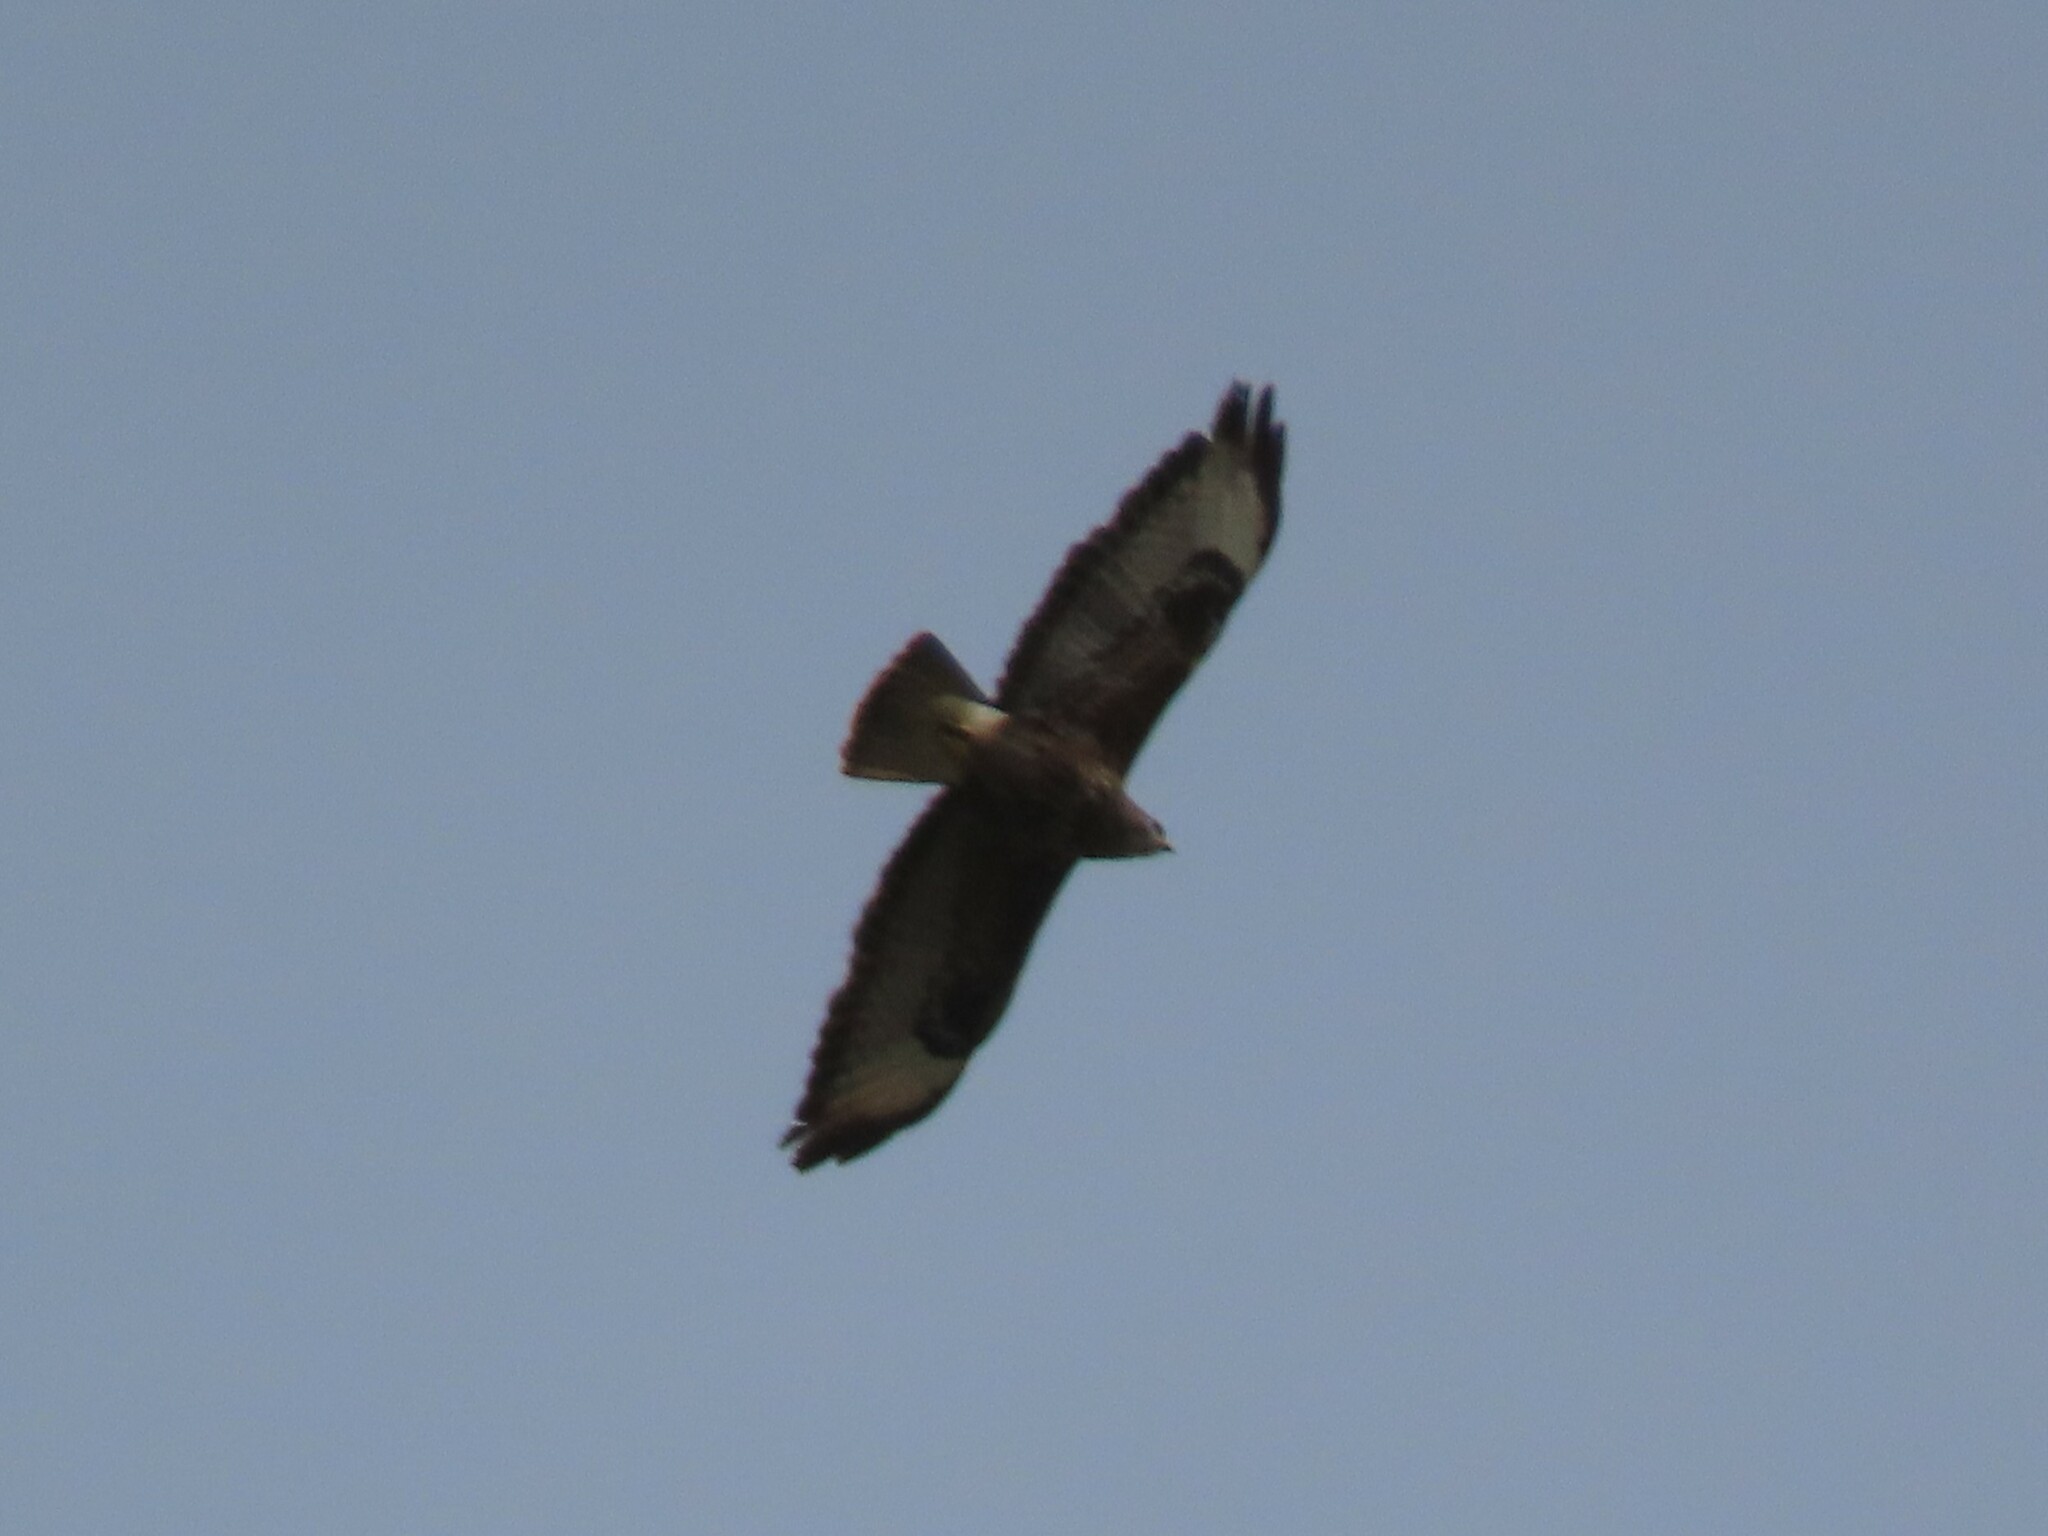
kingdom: Animalia
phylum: Chordata
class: Aves
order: Accipitriformes
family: Accipitridae
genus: Buteo
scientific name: Buteo buteo
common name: Common buzzard
